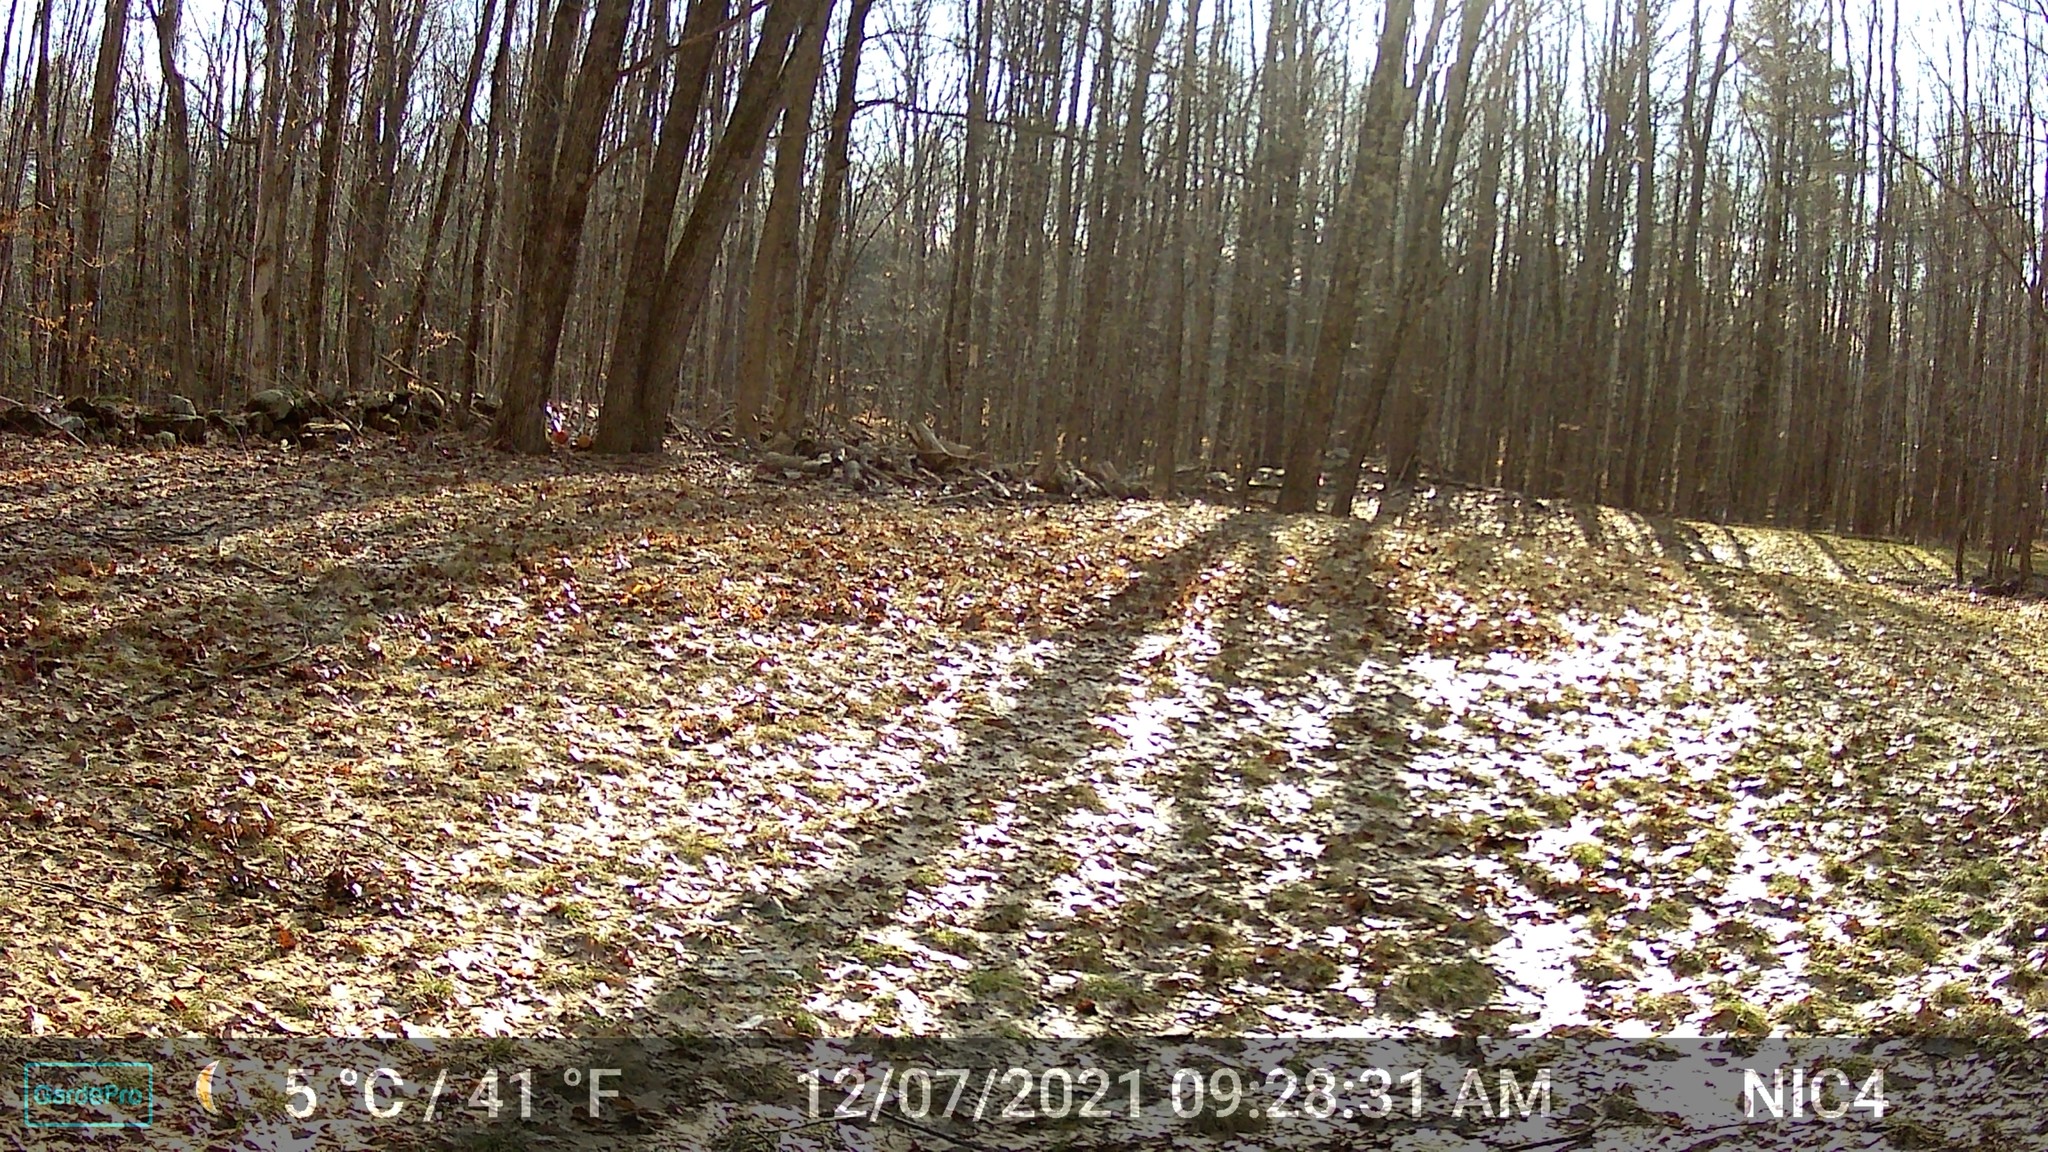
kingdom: Animalia
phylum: Chordata
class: Aves
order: Galliformes
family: Phasianidae
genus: Meleagris
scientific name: Meleagris gallopavo
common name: Wild turkey
